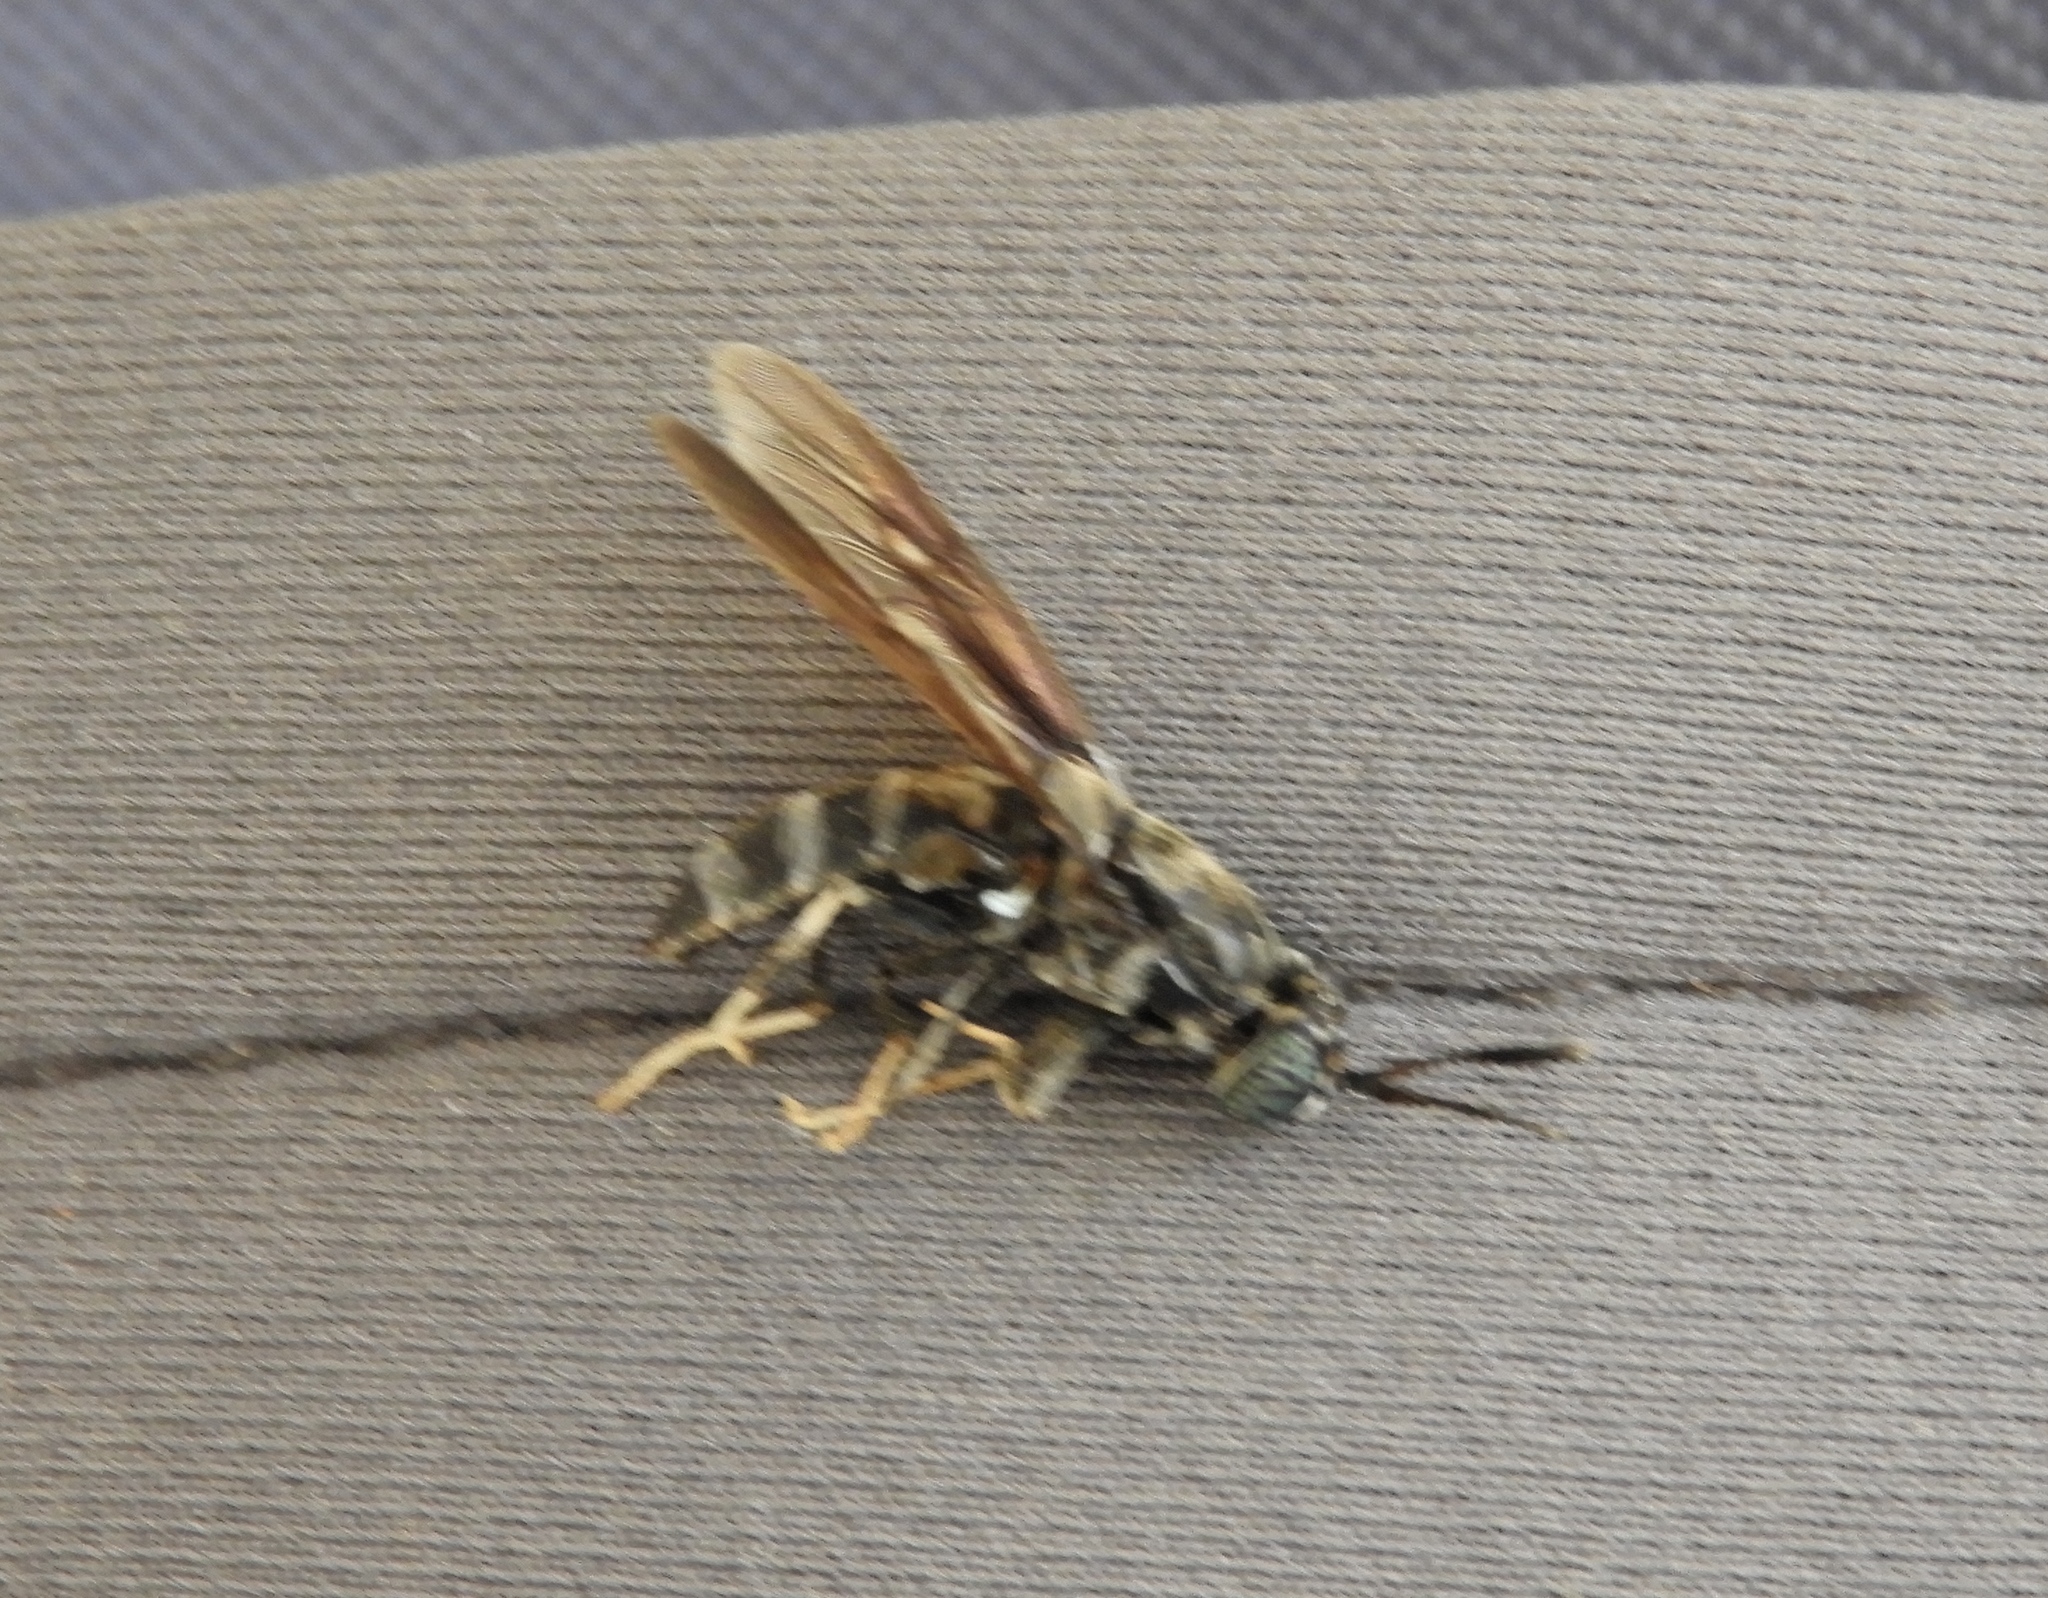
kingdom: Animalia
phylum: Arthropoda
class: Insecta
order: Diptera
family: Stratiomyidae
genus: Hermetia
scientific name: Hermetia
